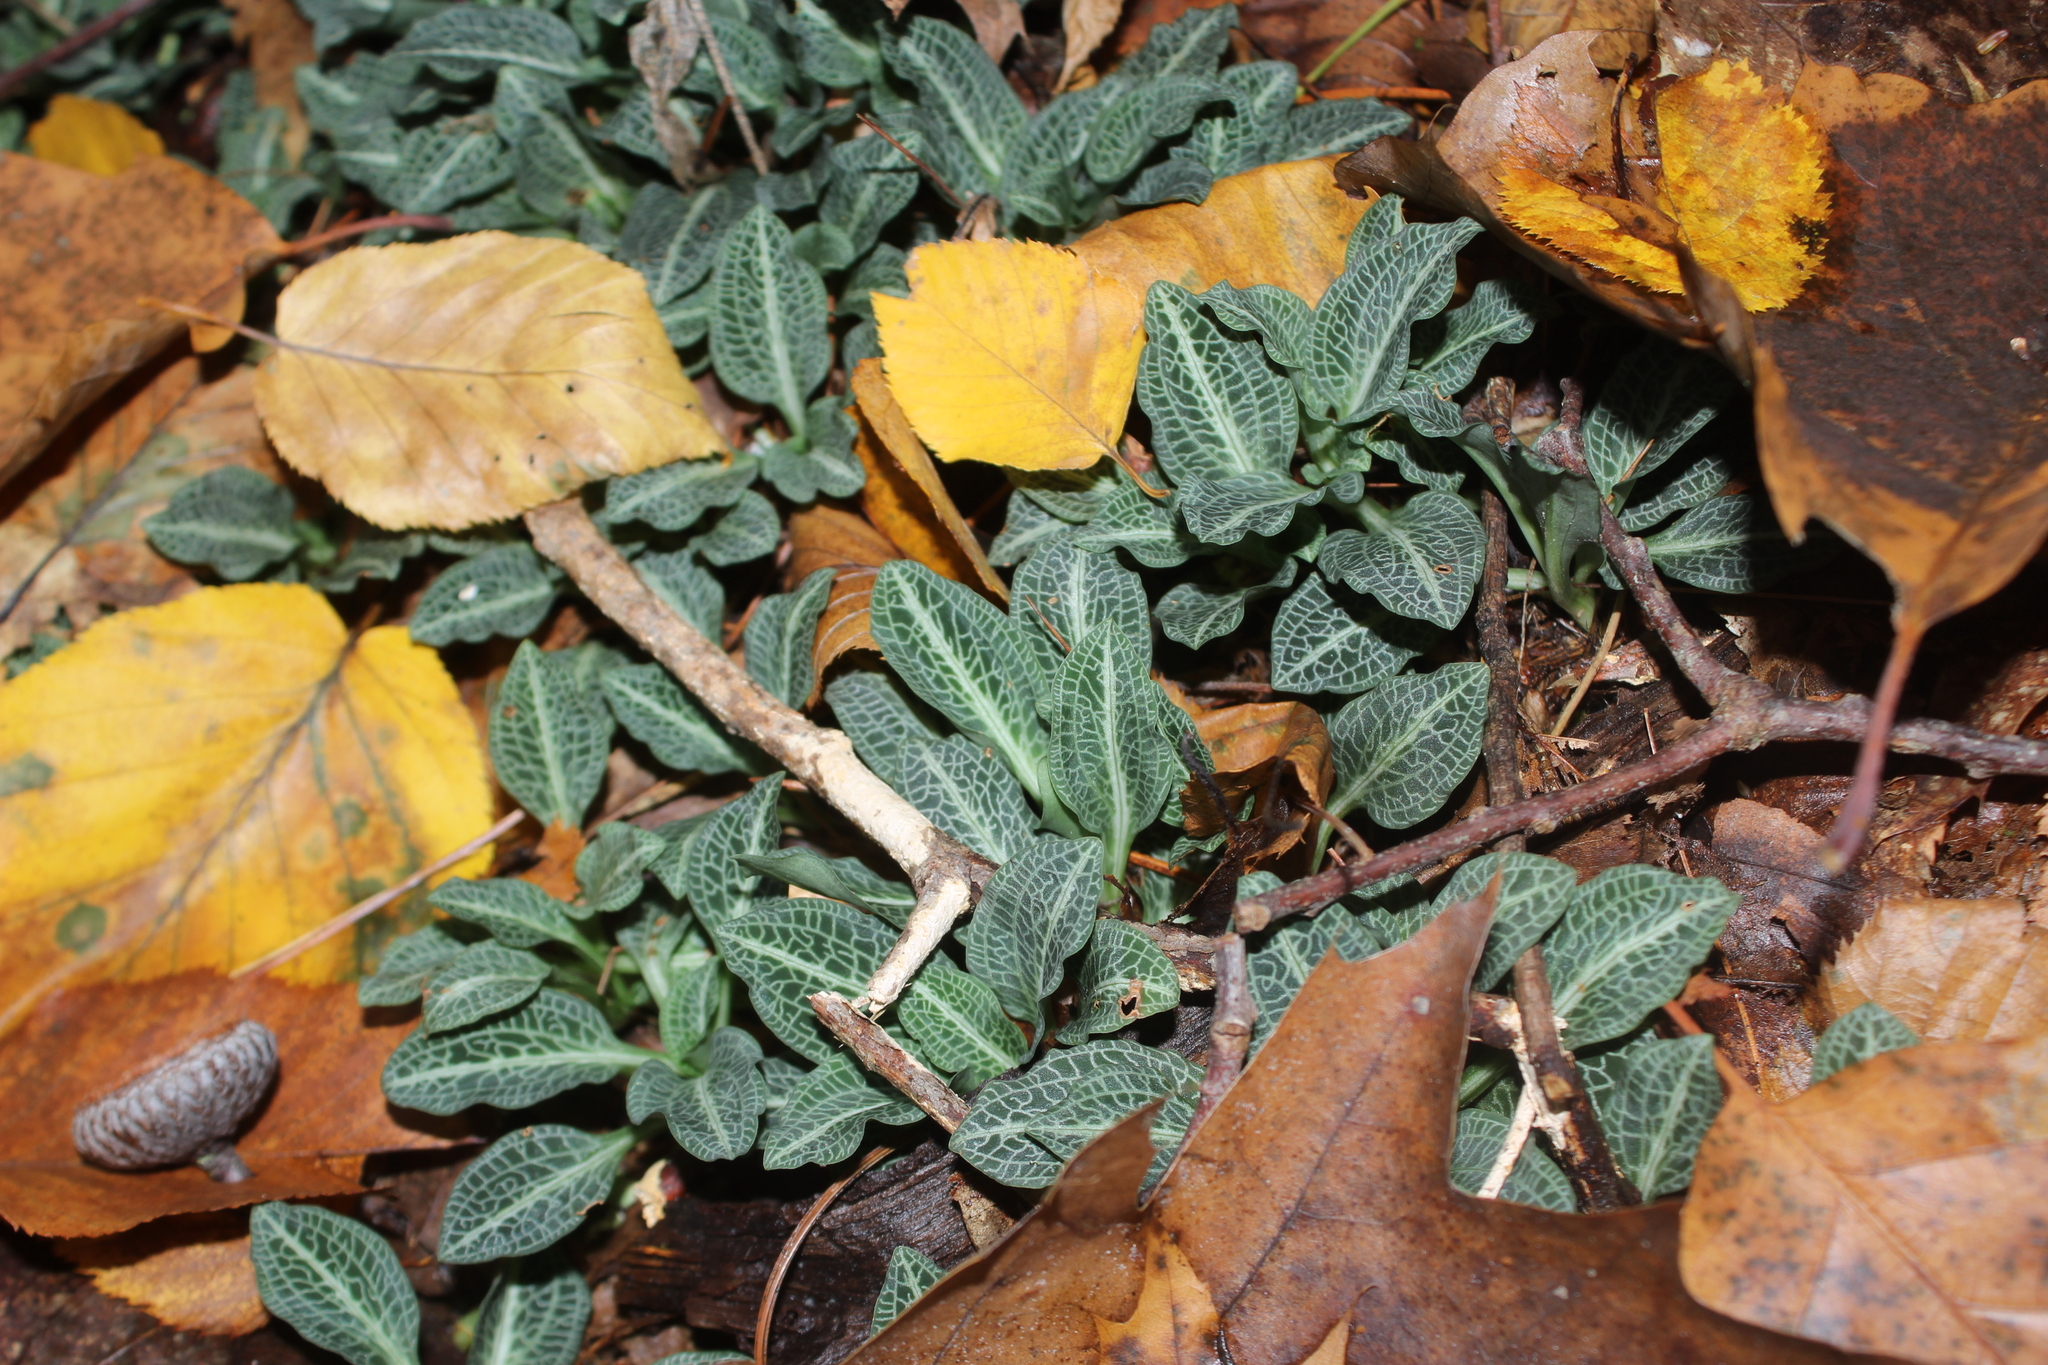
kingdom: Plantae
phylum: Tracheophyta
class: Liliopsida
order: Asparagales
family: Orchidaceae
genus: Goodyera
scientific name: Goodyera pubescens
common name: Downy rattlesnake-plantain
